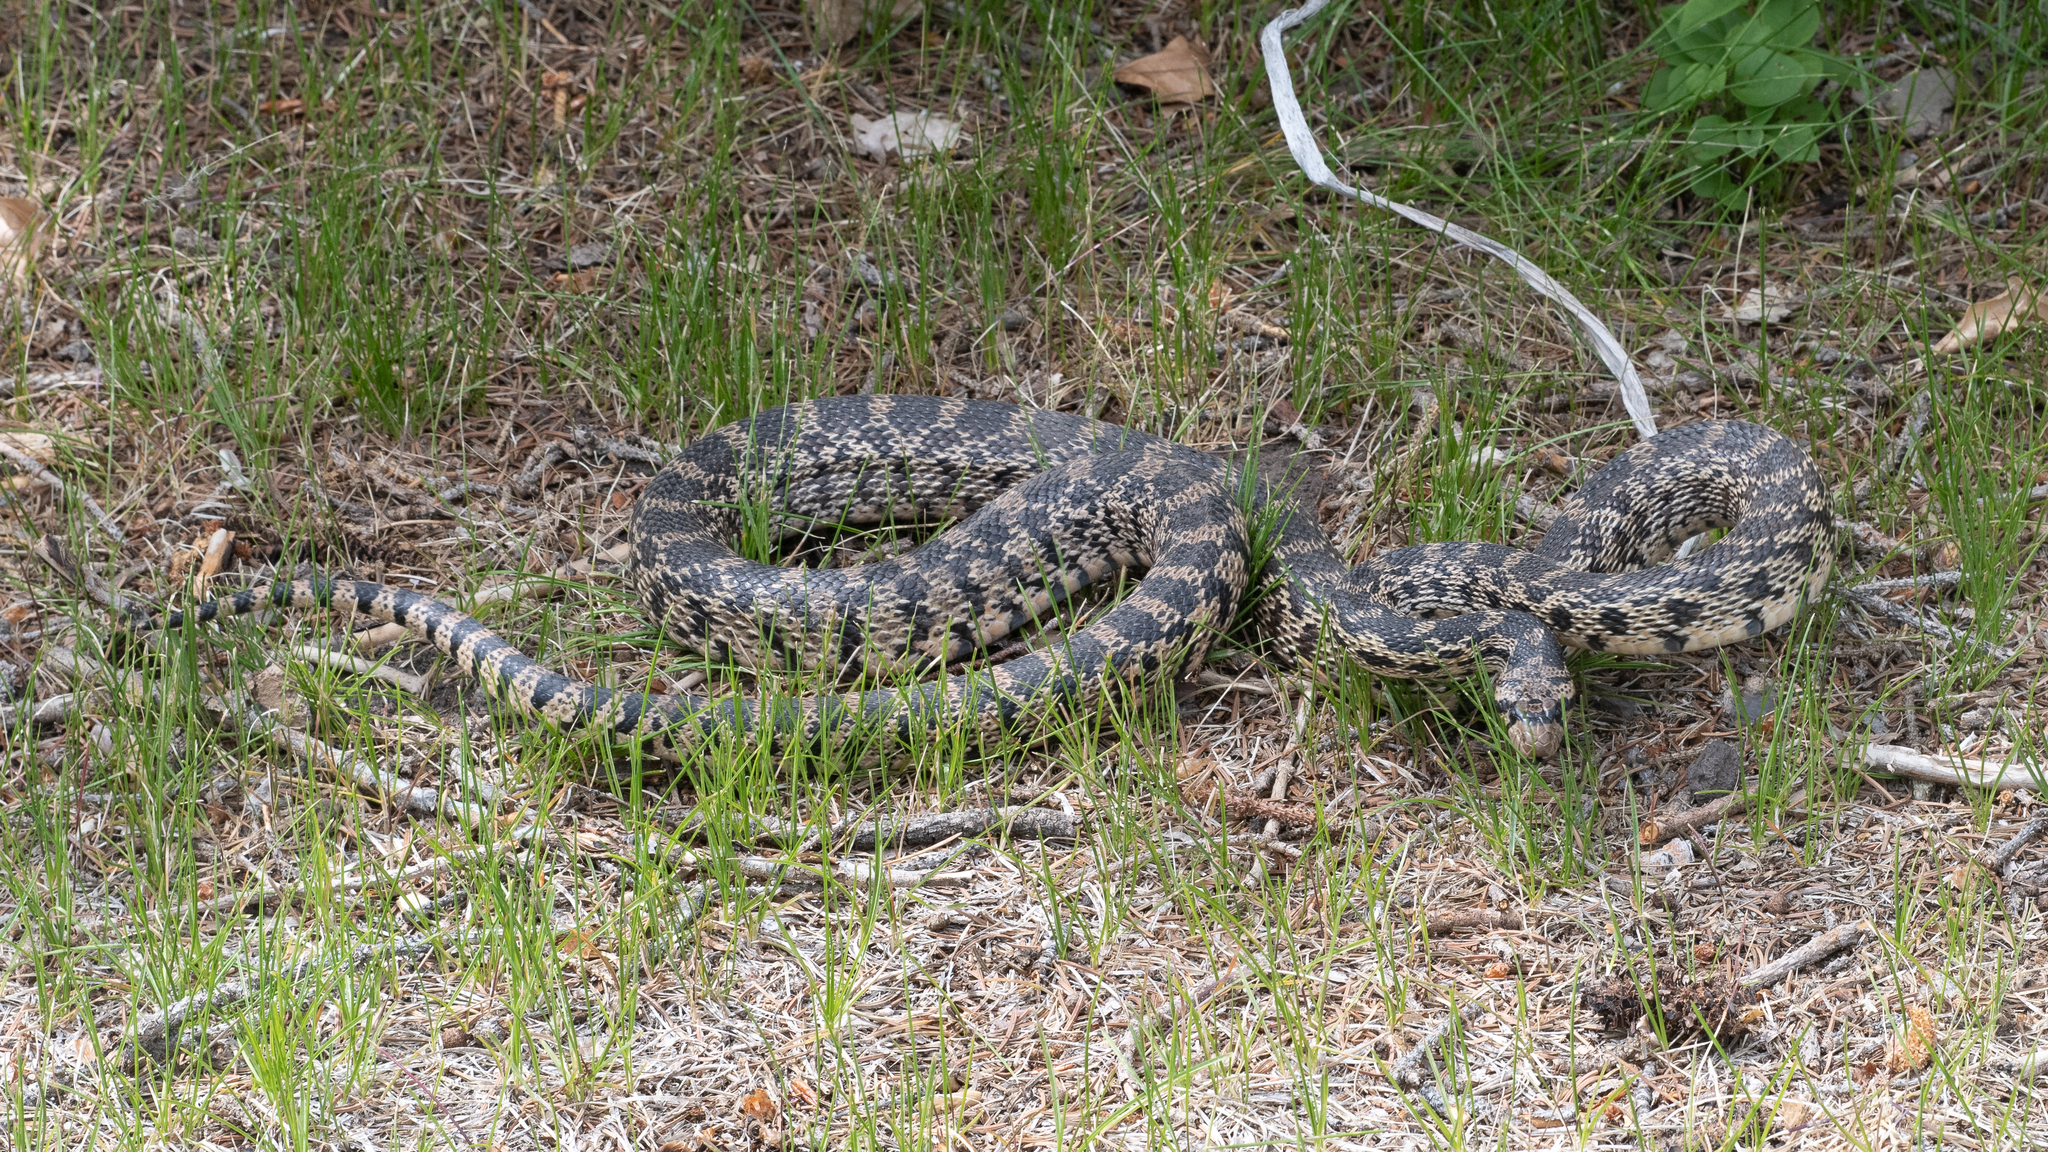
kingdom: Animalia
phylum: Chordata
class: Squamata
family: Colubridae
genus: Pituophis
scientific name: Pituophis catenifer
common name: Gopher snake
